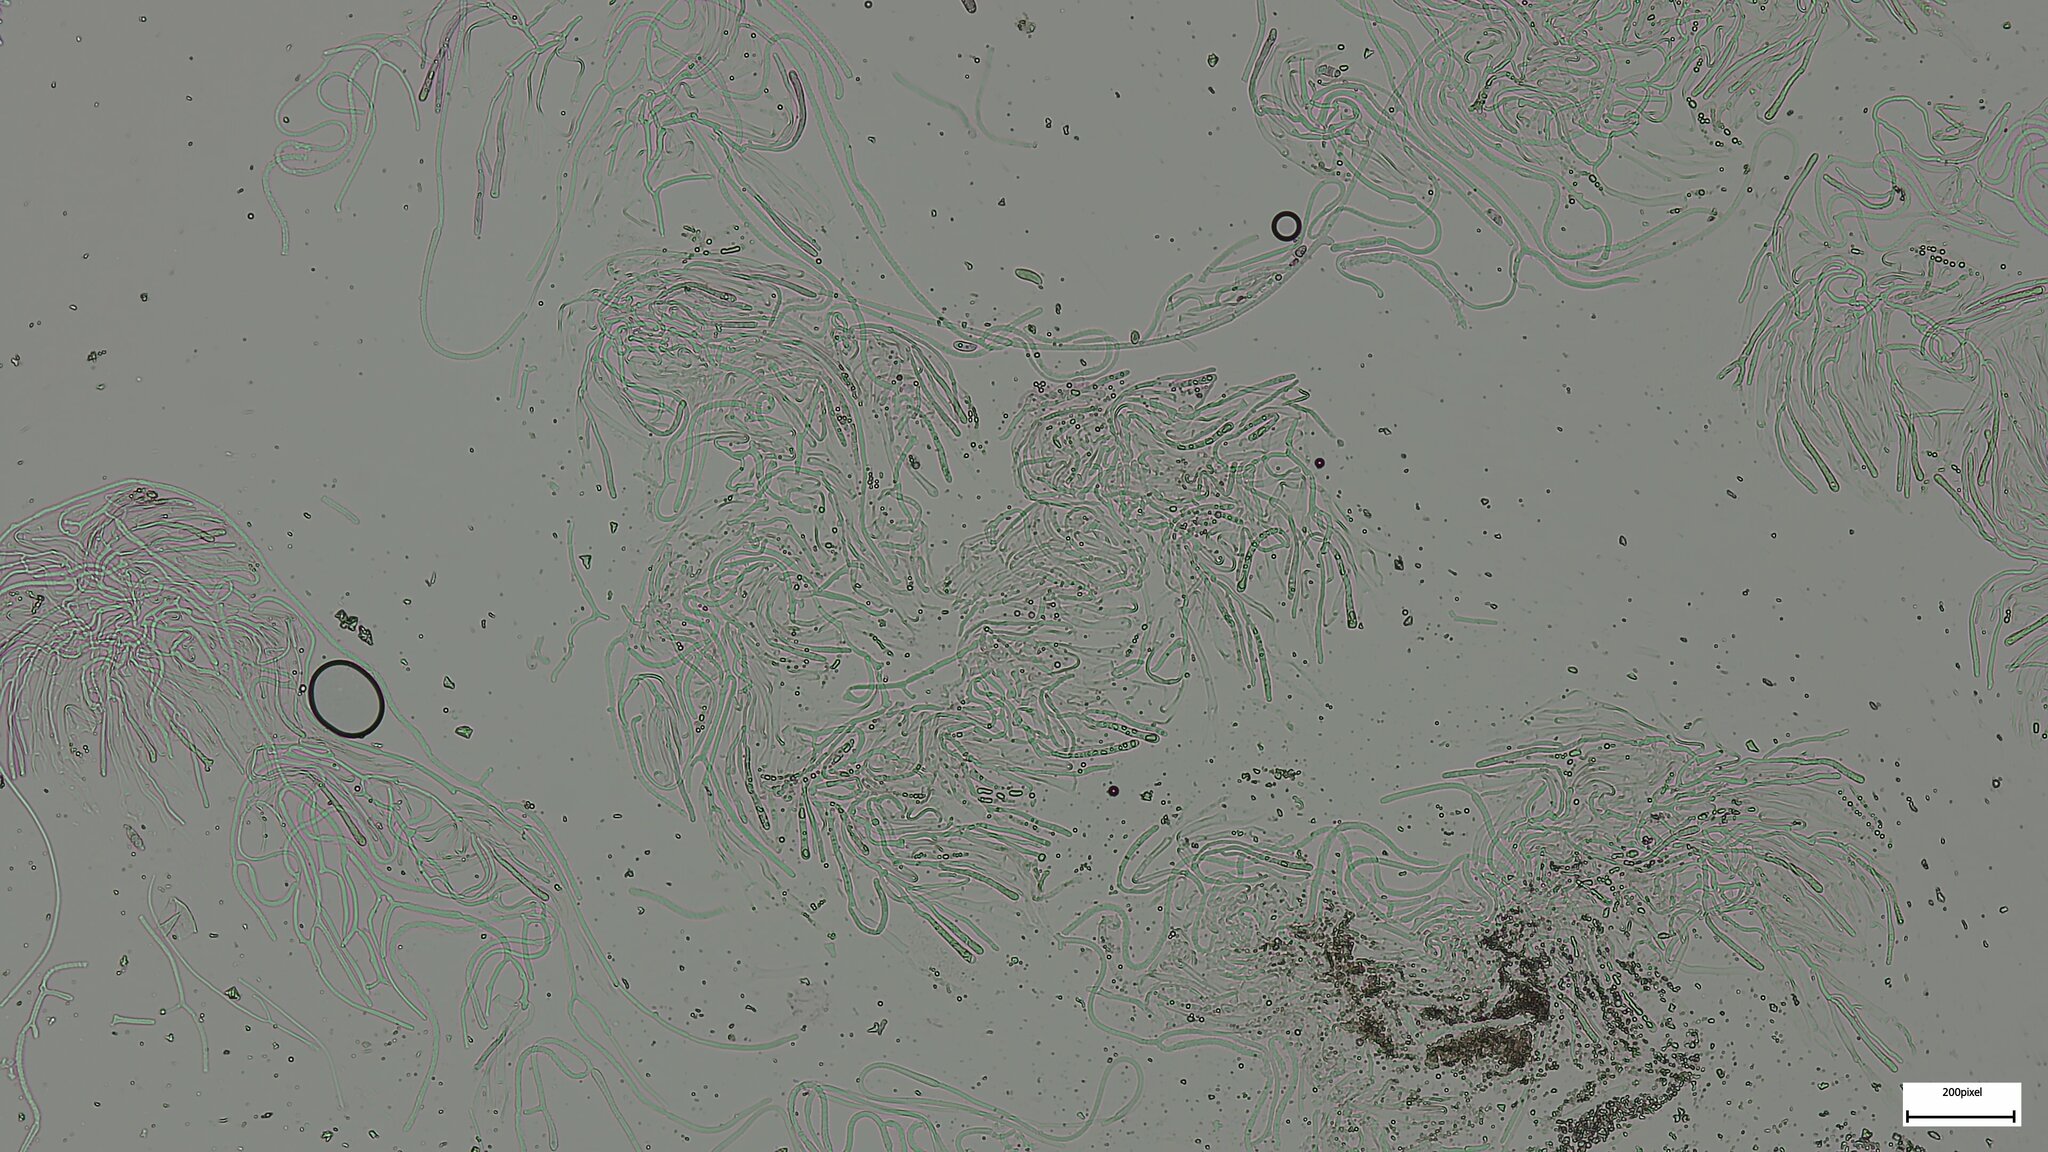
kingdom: Fungi
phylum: Basidiomycota
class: Dacrymycetes
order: Dacrymycetales
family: Dacrymycetaceae
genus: Dacrymyces
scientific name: Dacrymyces roseotinctus
